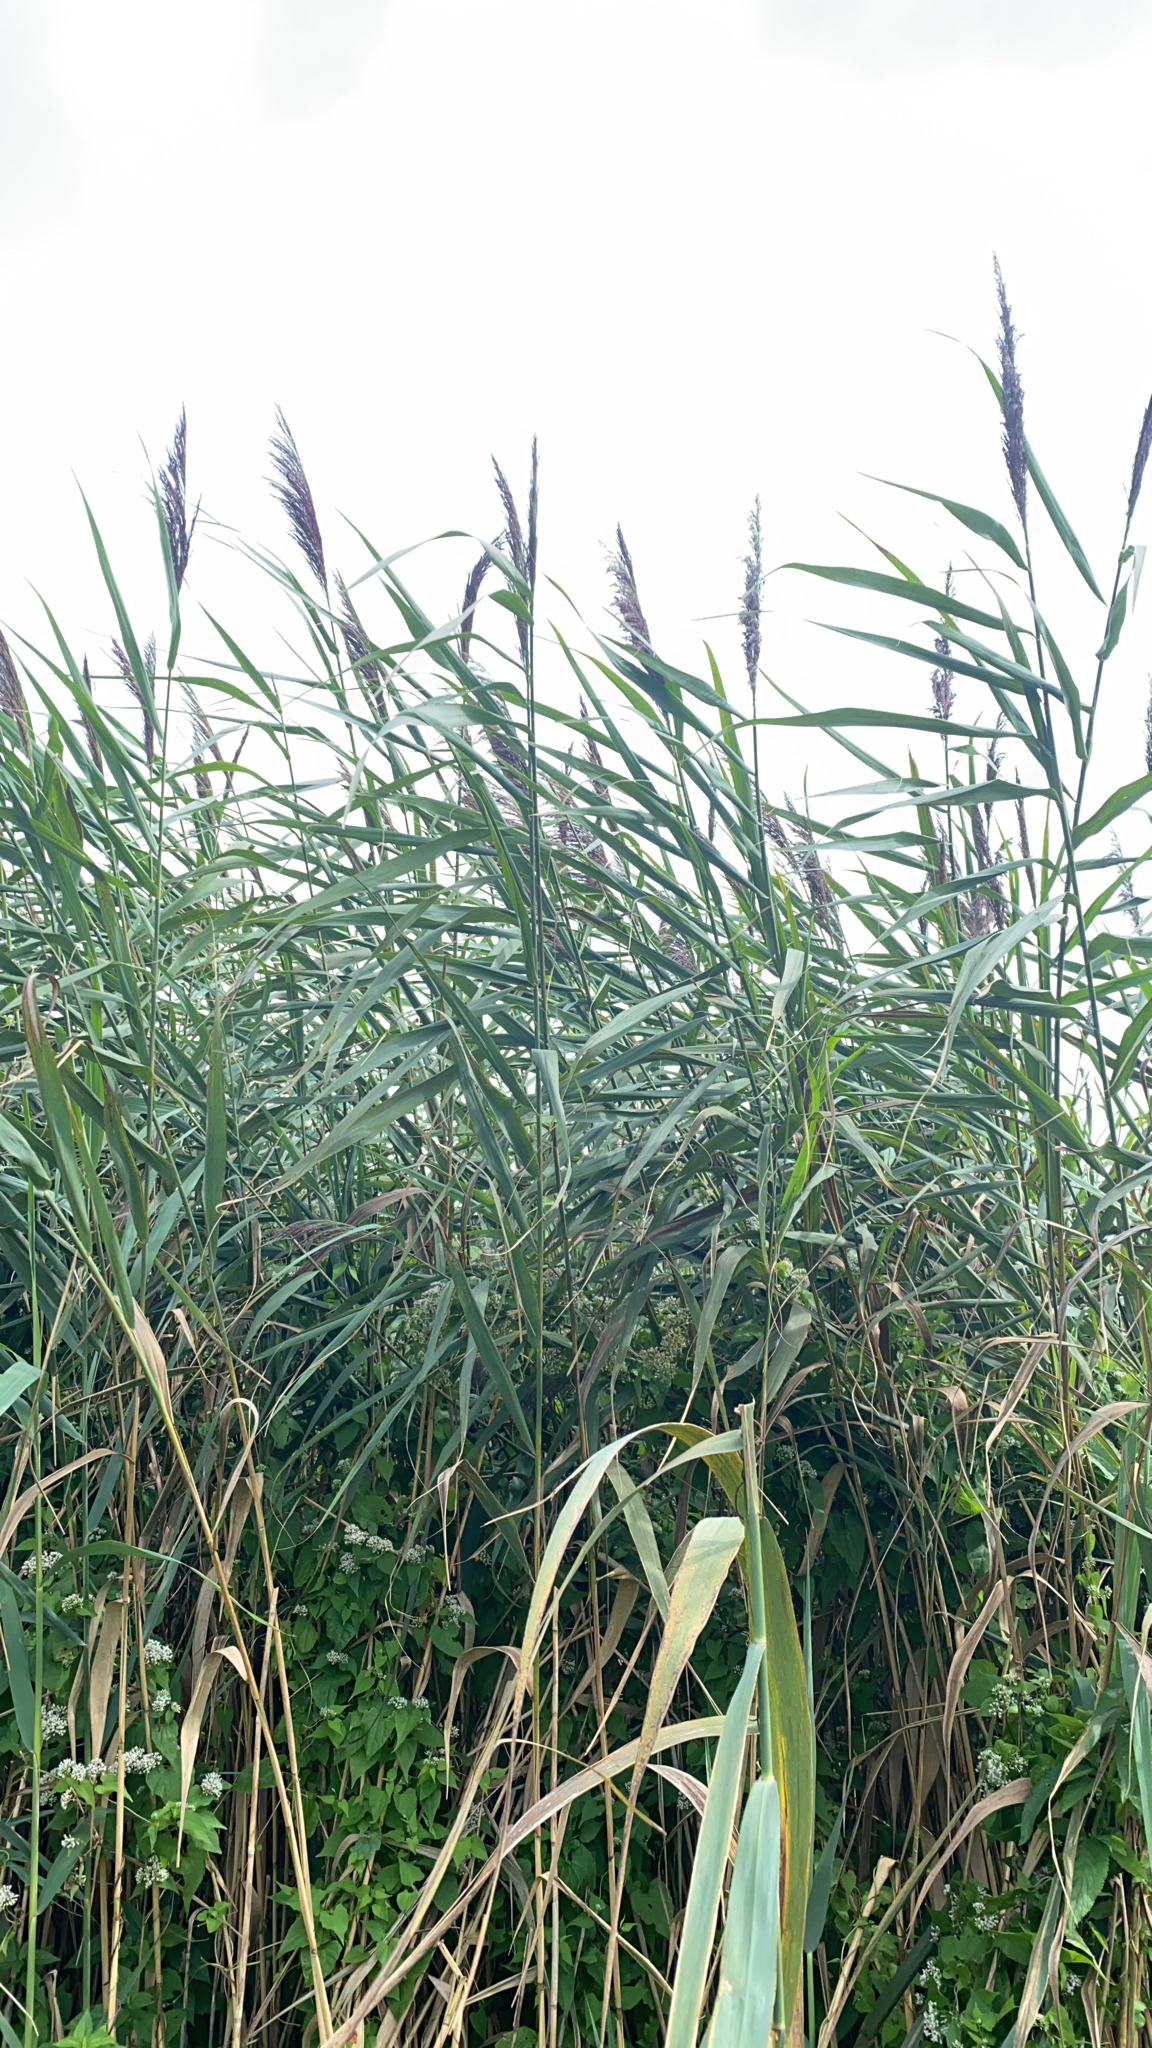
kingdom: Plantae
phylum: Tracheophyta
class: Liliopsida
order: Poales
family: Poaceae
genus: Phragmites
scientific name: Phragmites australis
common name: Common reed
